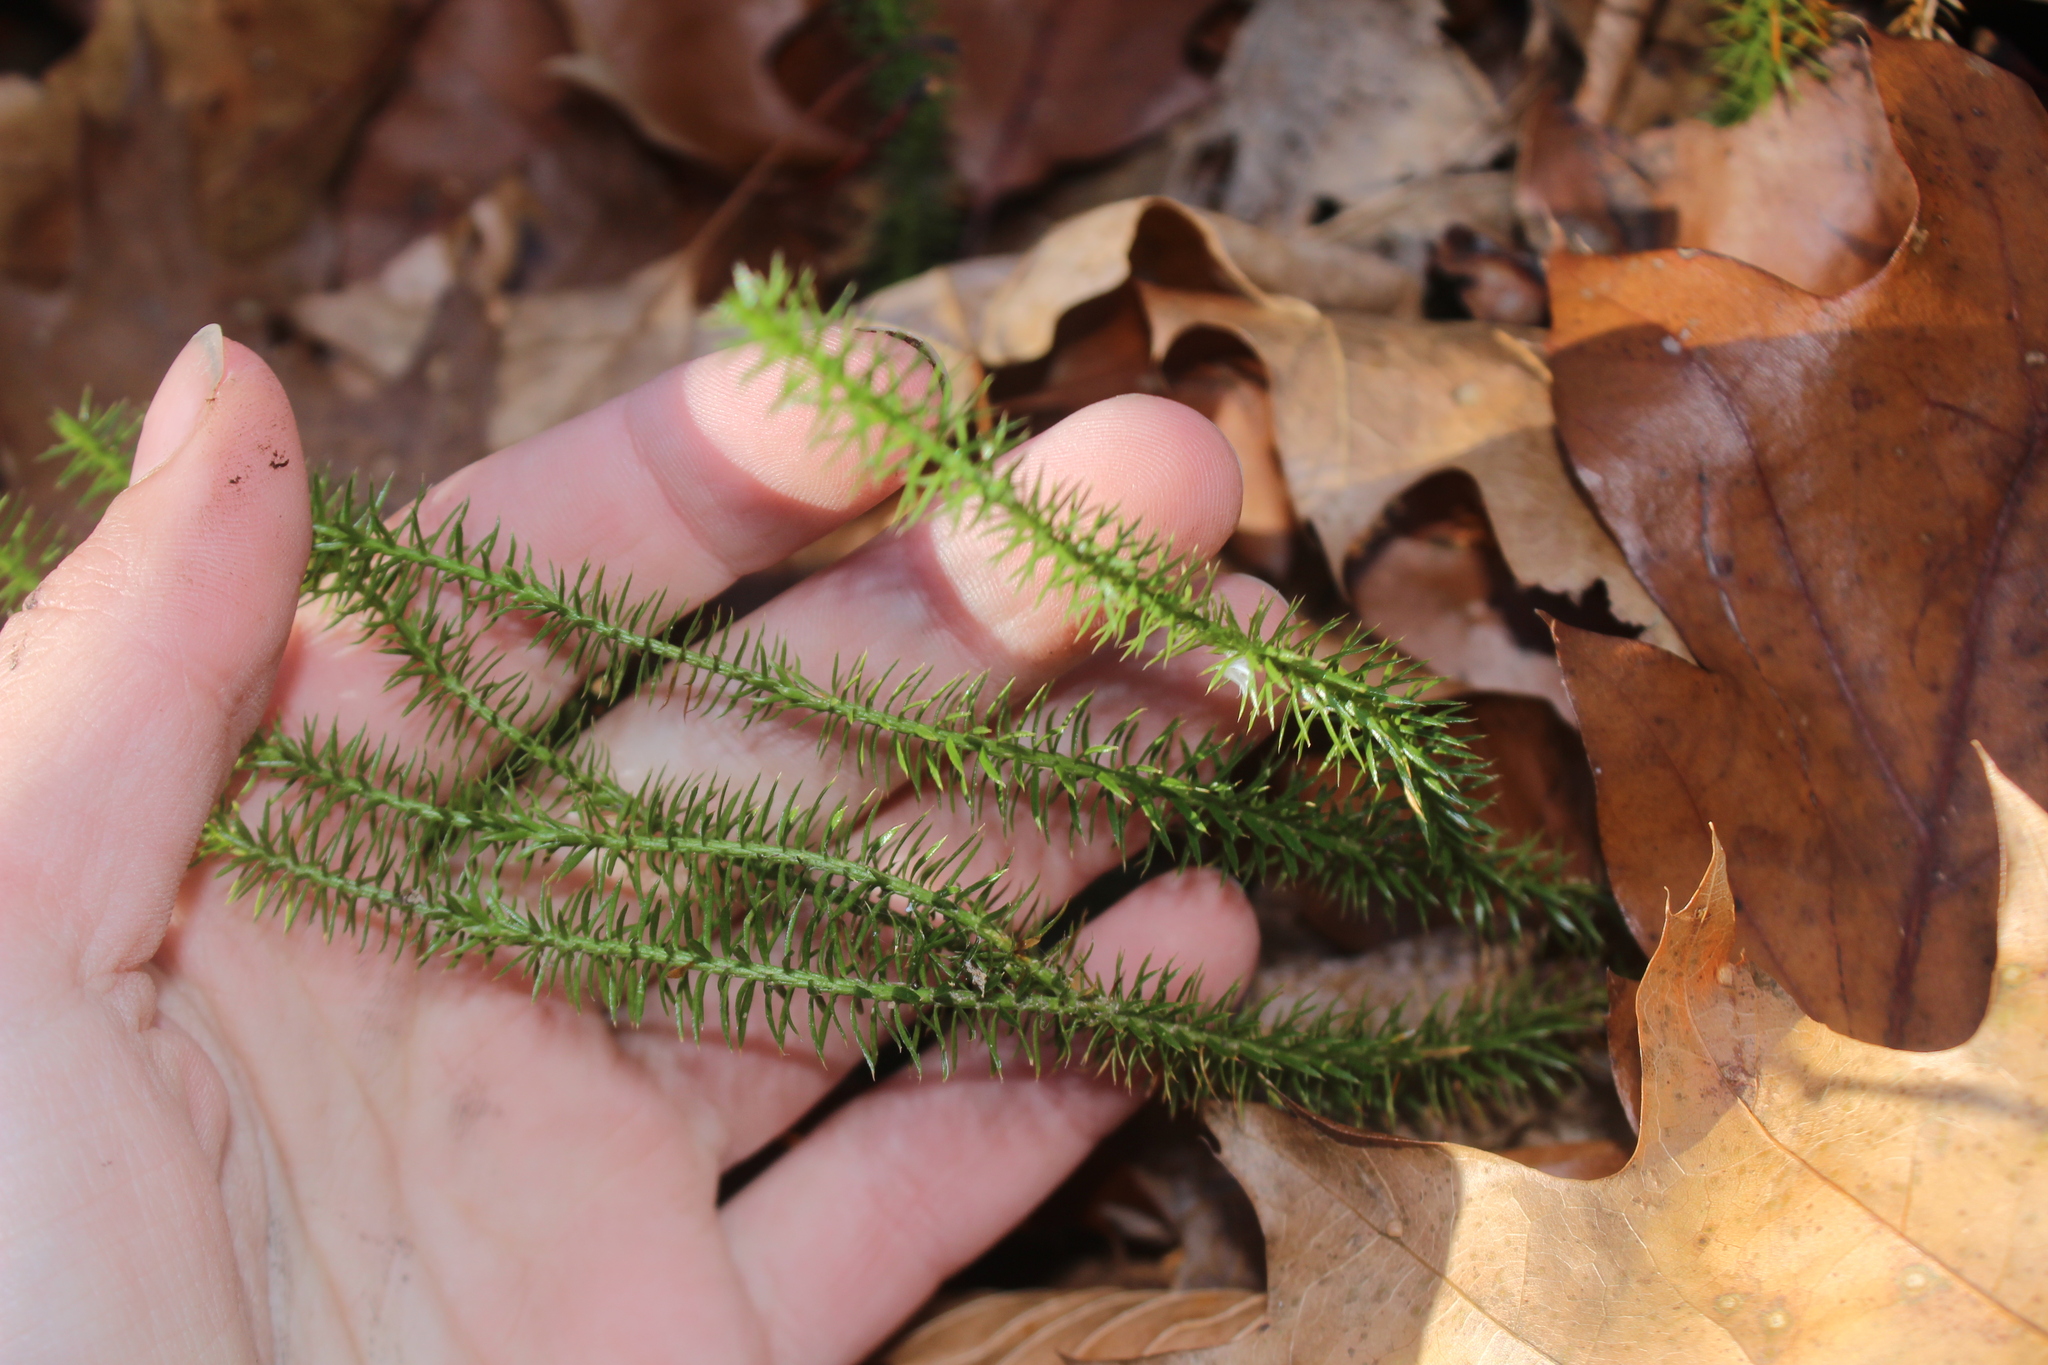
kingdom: Plantae
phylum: Tracheophyta
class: Lycopodiopsida
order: Lycopodiales
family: Lycopodiaceae
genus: Spinulum
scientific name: Spinulum annotinum
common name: Interrupted club-moss
